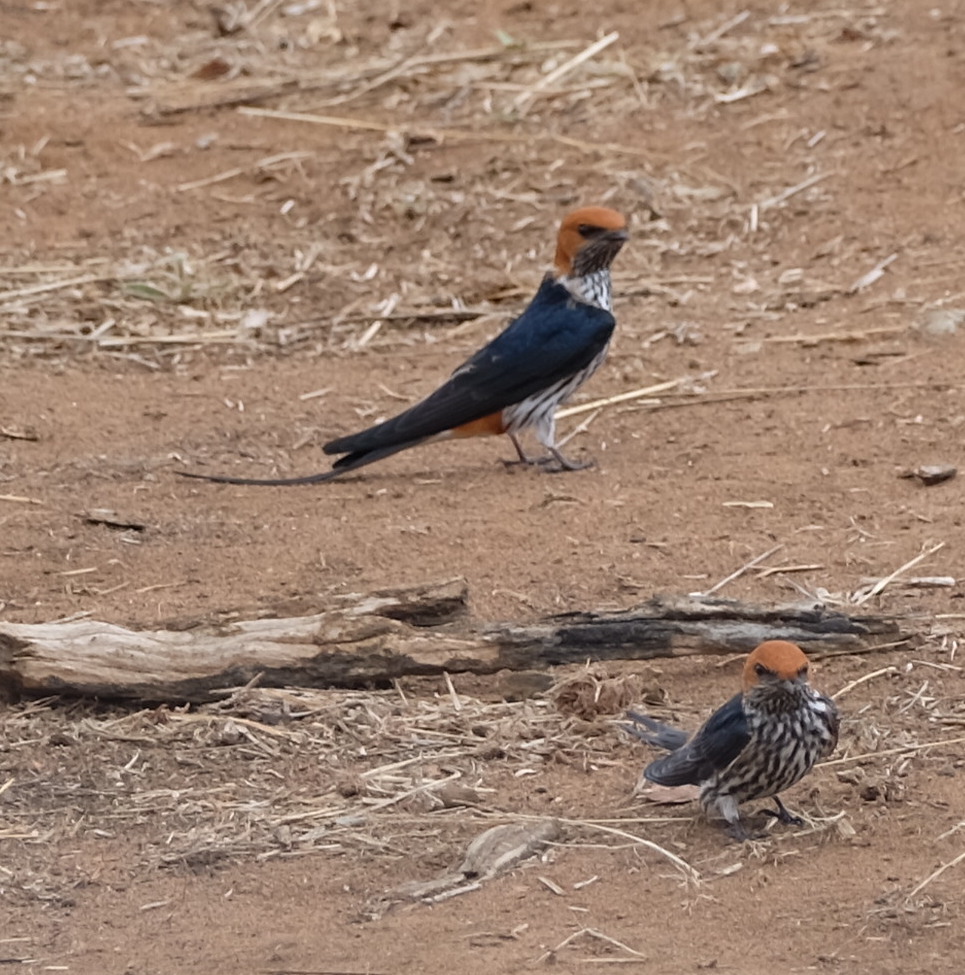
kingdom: Animalia
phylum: Chordata
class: Aves
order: Passeriformes
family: Hirundinidae
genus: Cecropis
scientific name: Cecropis abyssinica
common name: Lesser striped-swallow
